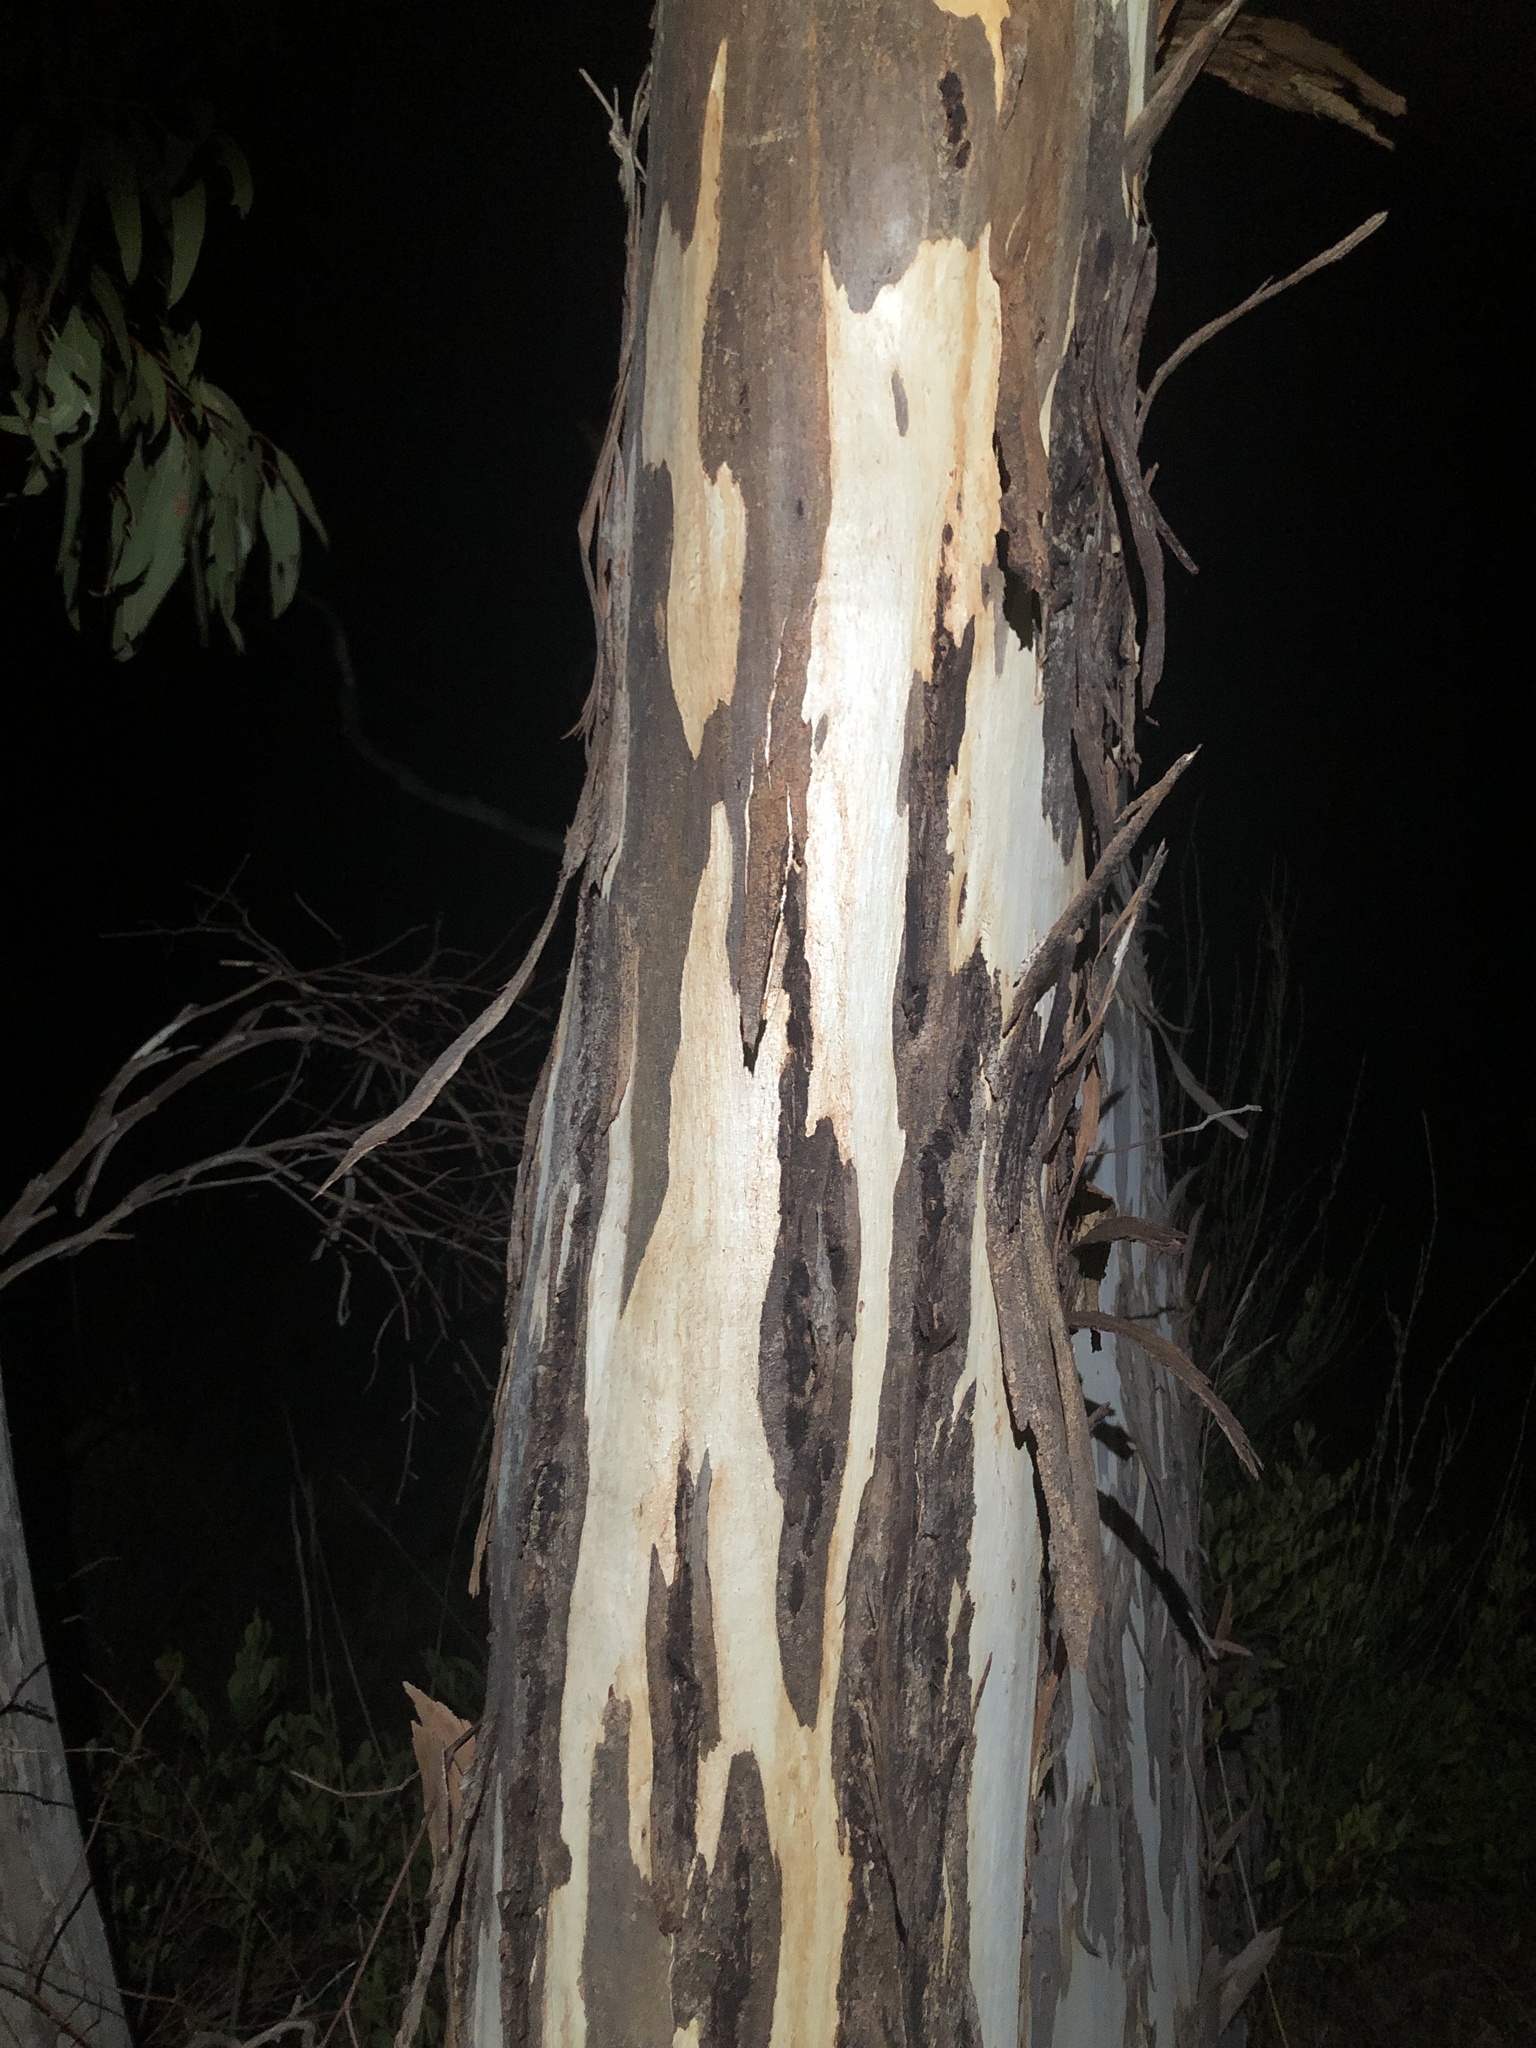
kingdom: Plantae
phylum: Tracheophyta
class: Magnoliopsida
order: Myrtales
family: Myrtaceae
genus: Eucalyptus
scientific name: Eucalyptus fasciculosa
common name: Hill gum
